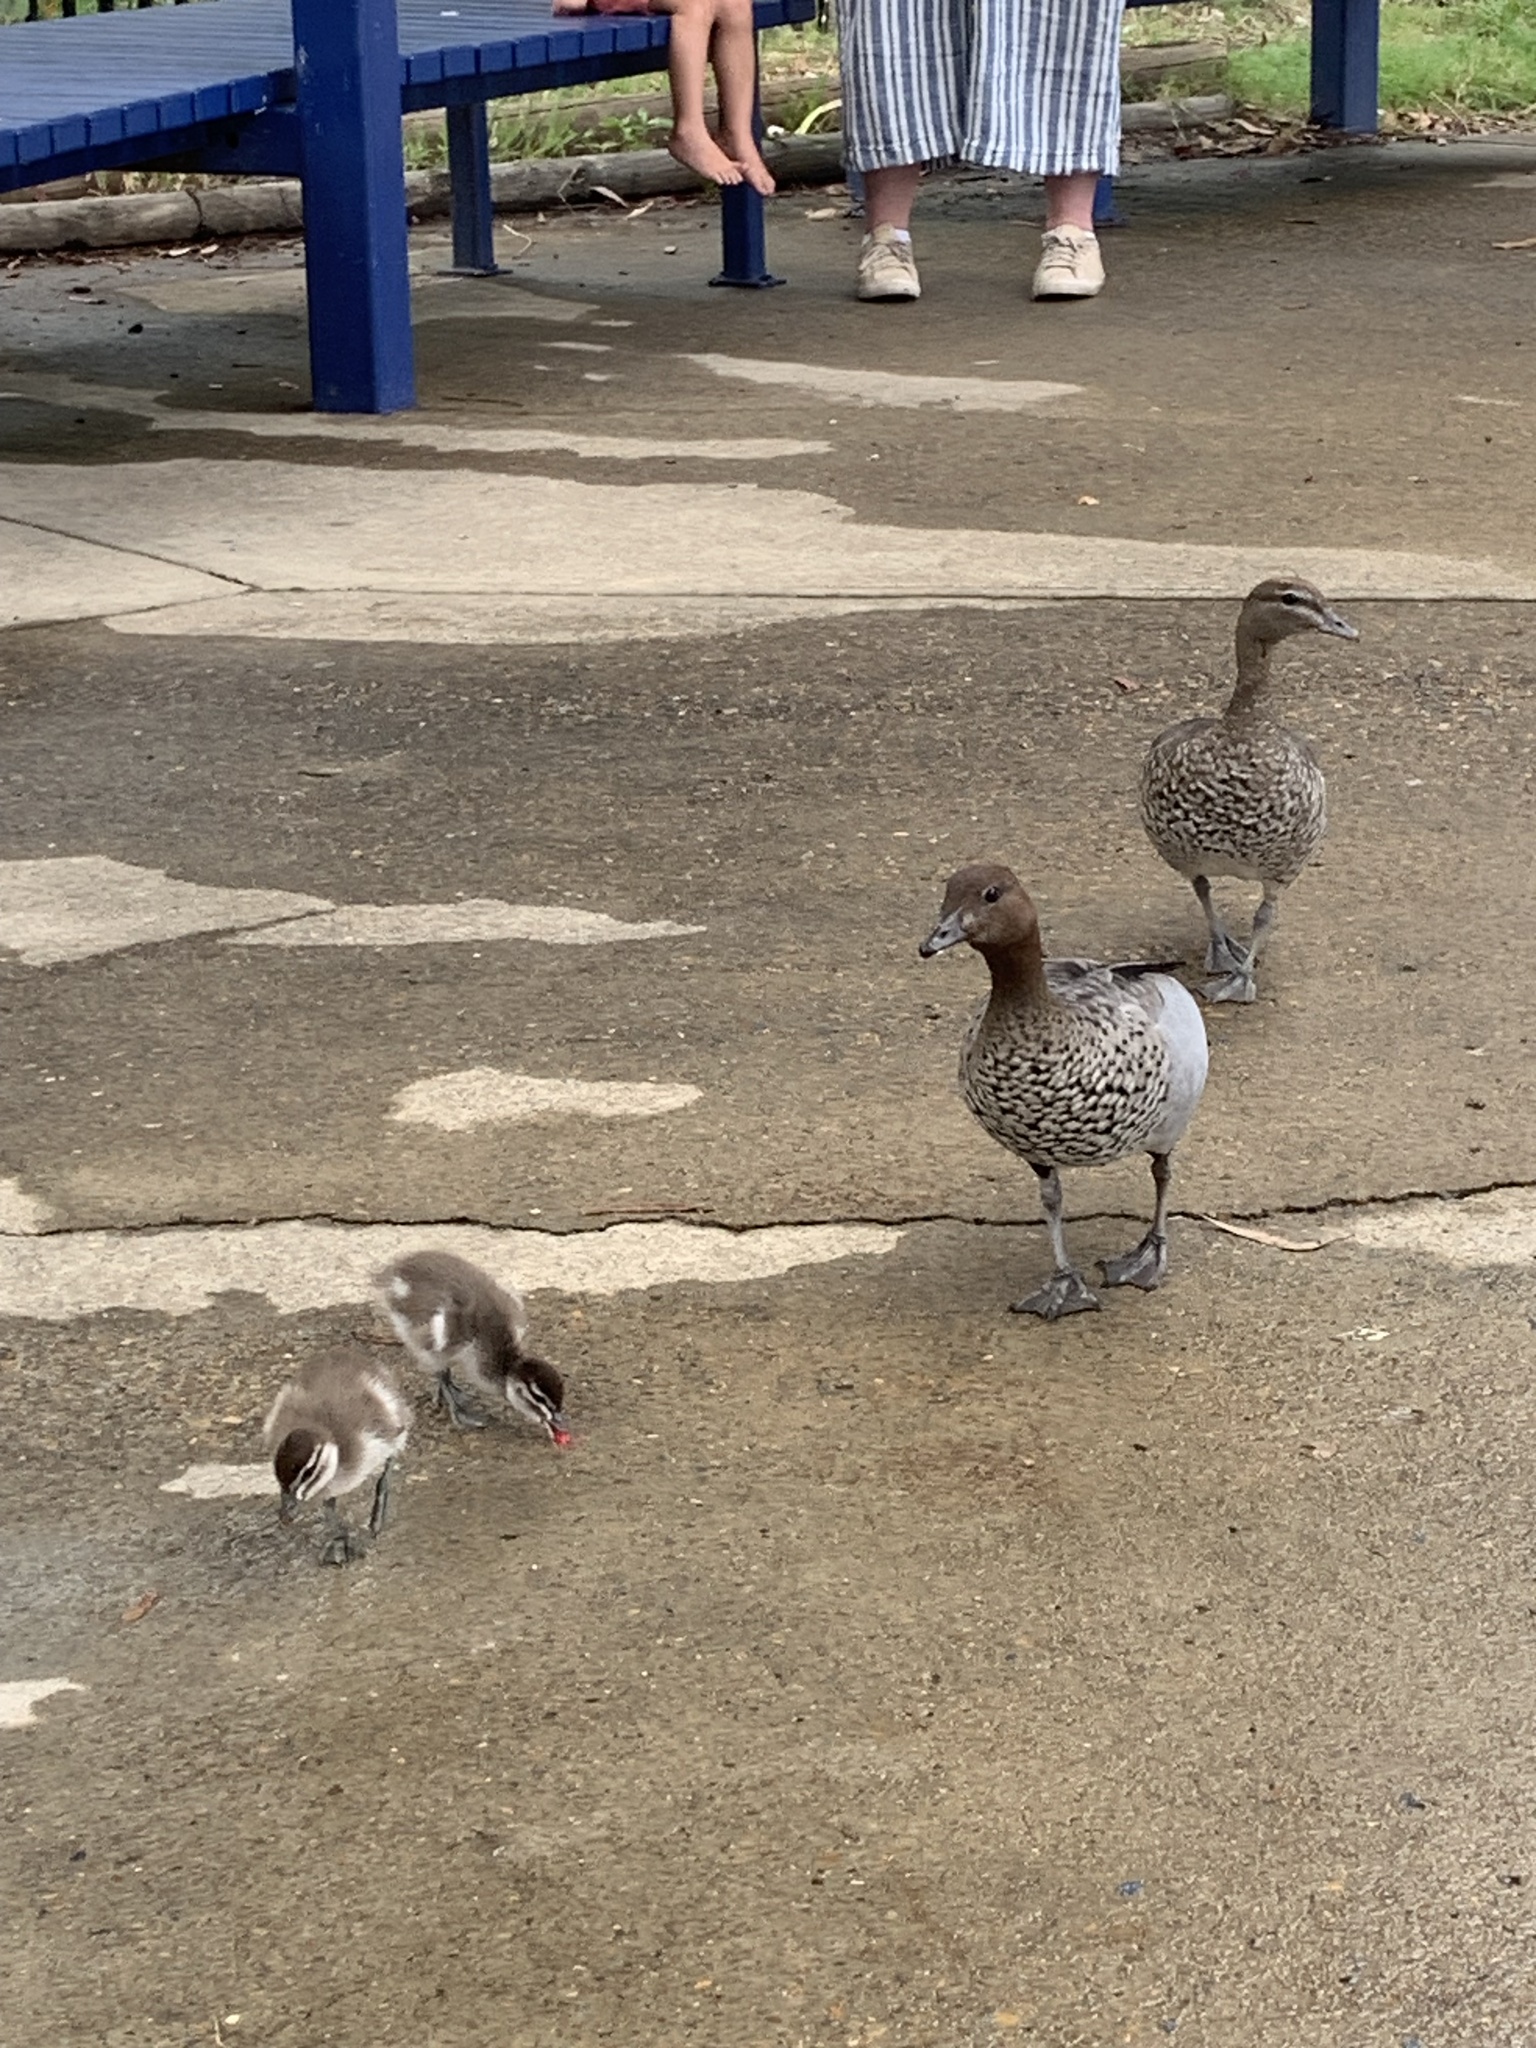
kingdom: Animalia
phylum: Chordata
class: Aves
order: Anseriformes
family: Anatidae
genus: Chenonetta
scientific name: Chenonetta jubata
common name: Maned duck
